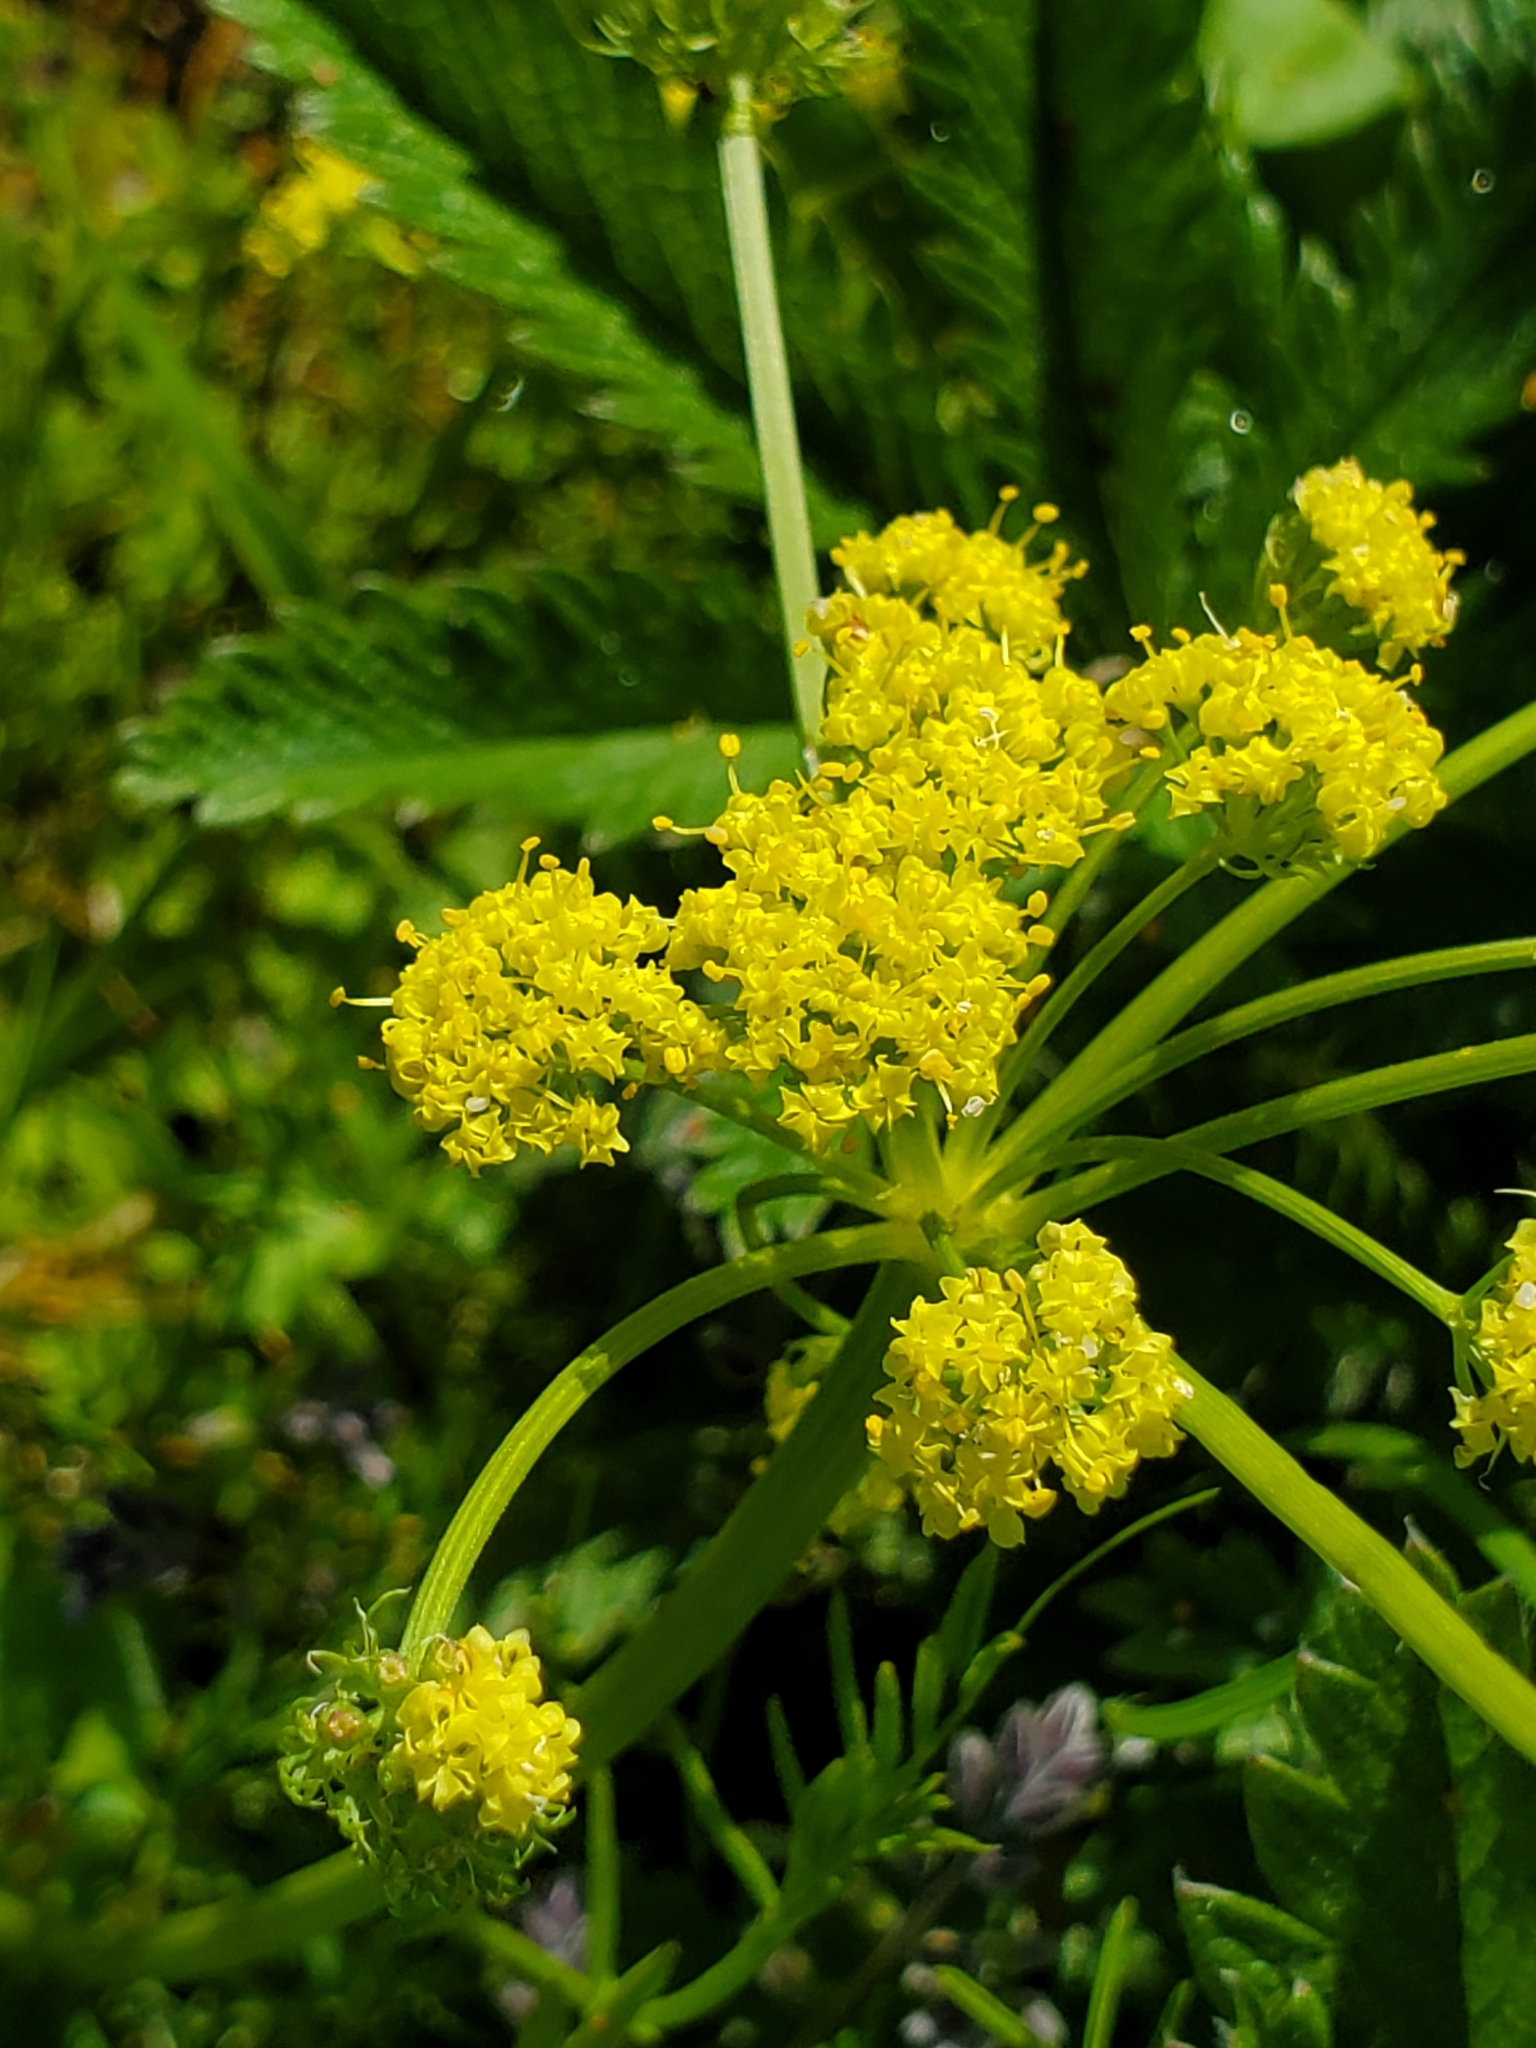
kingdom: Plantae
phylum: Tracheophyta
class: Magnoliopsida
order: Apiales
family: Apiaceae
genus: Lomatium
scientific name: Lomatium bradshawii
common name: Bradshaw's desert-parsley
